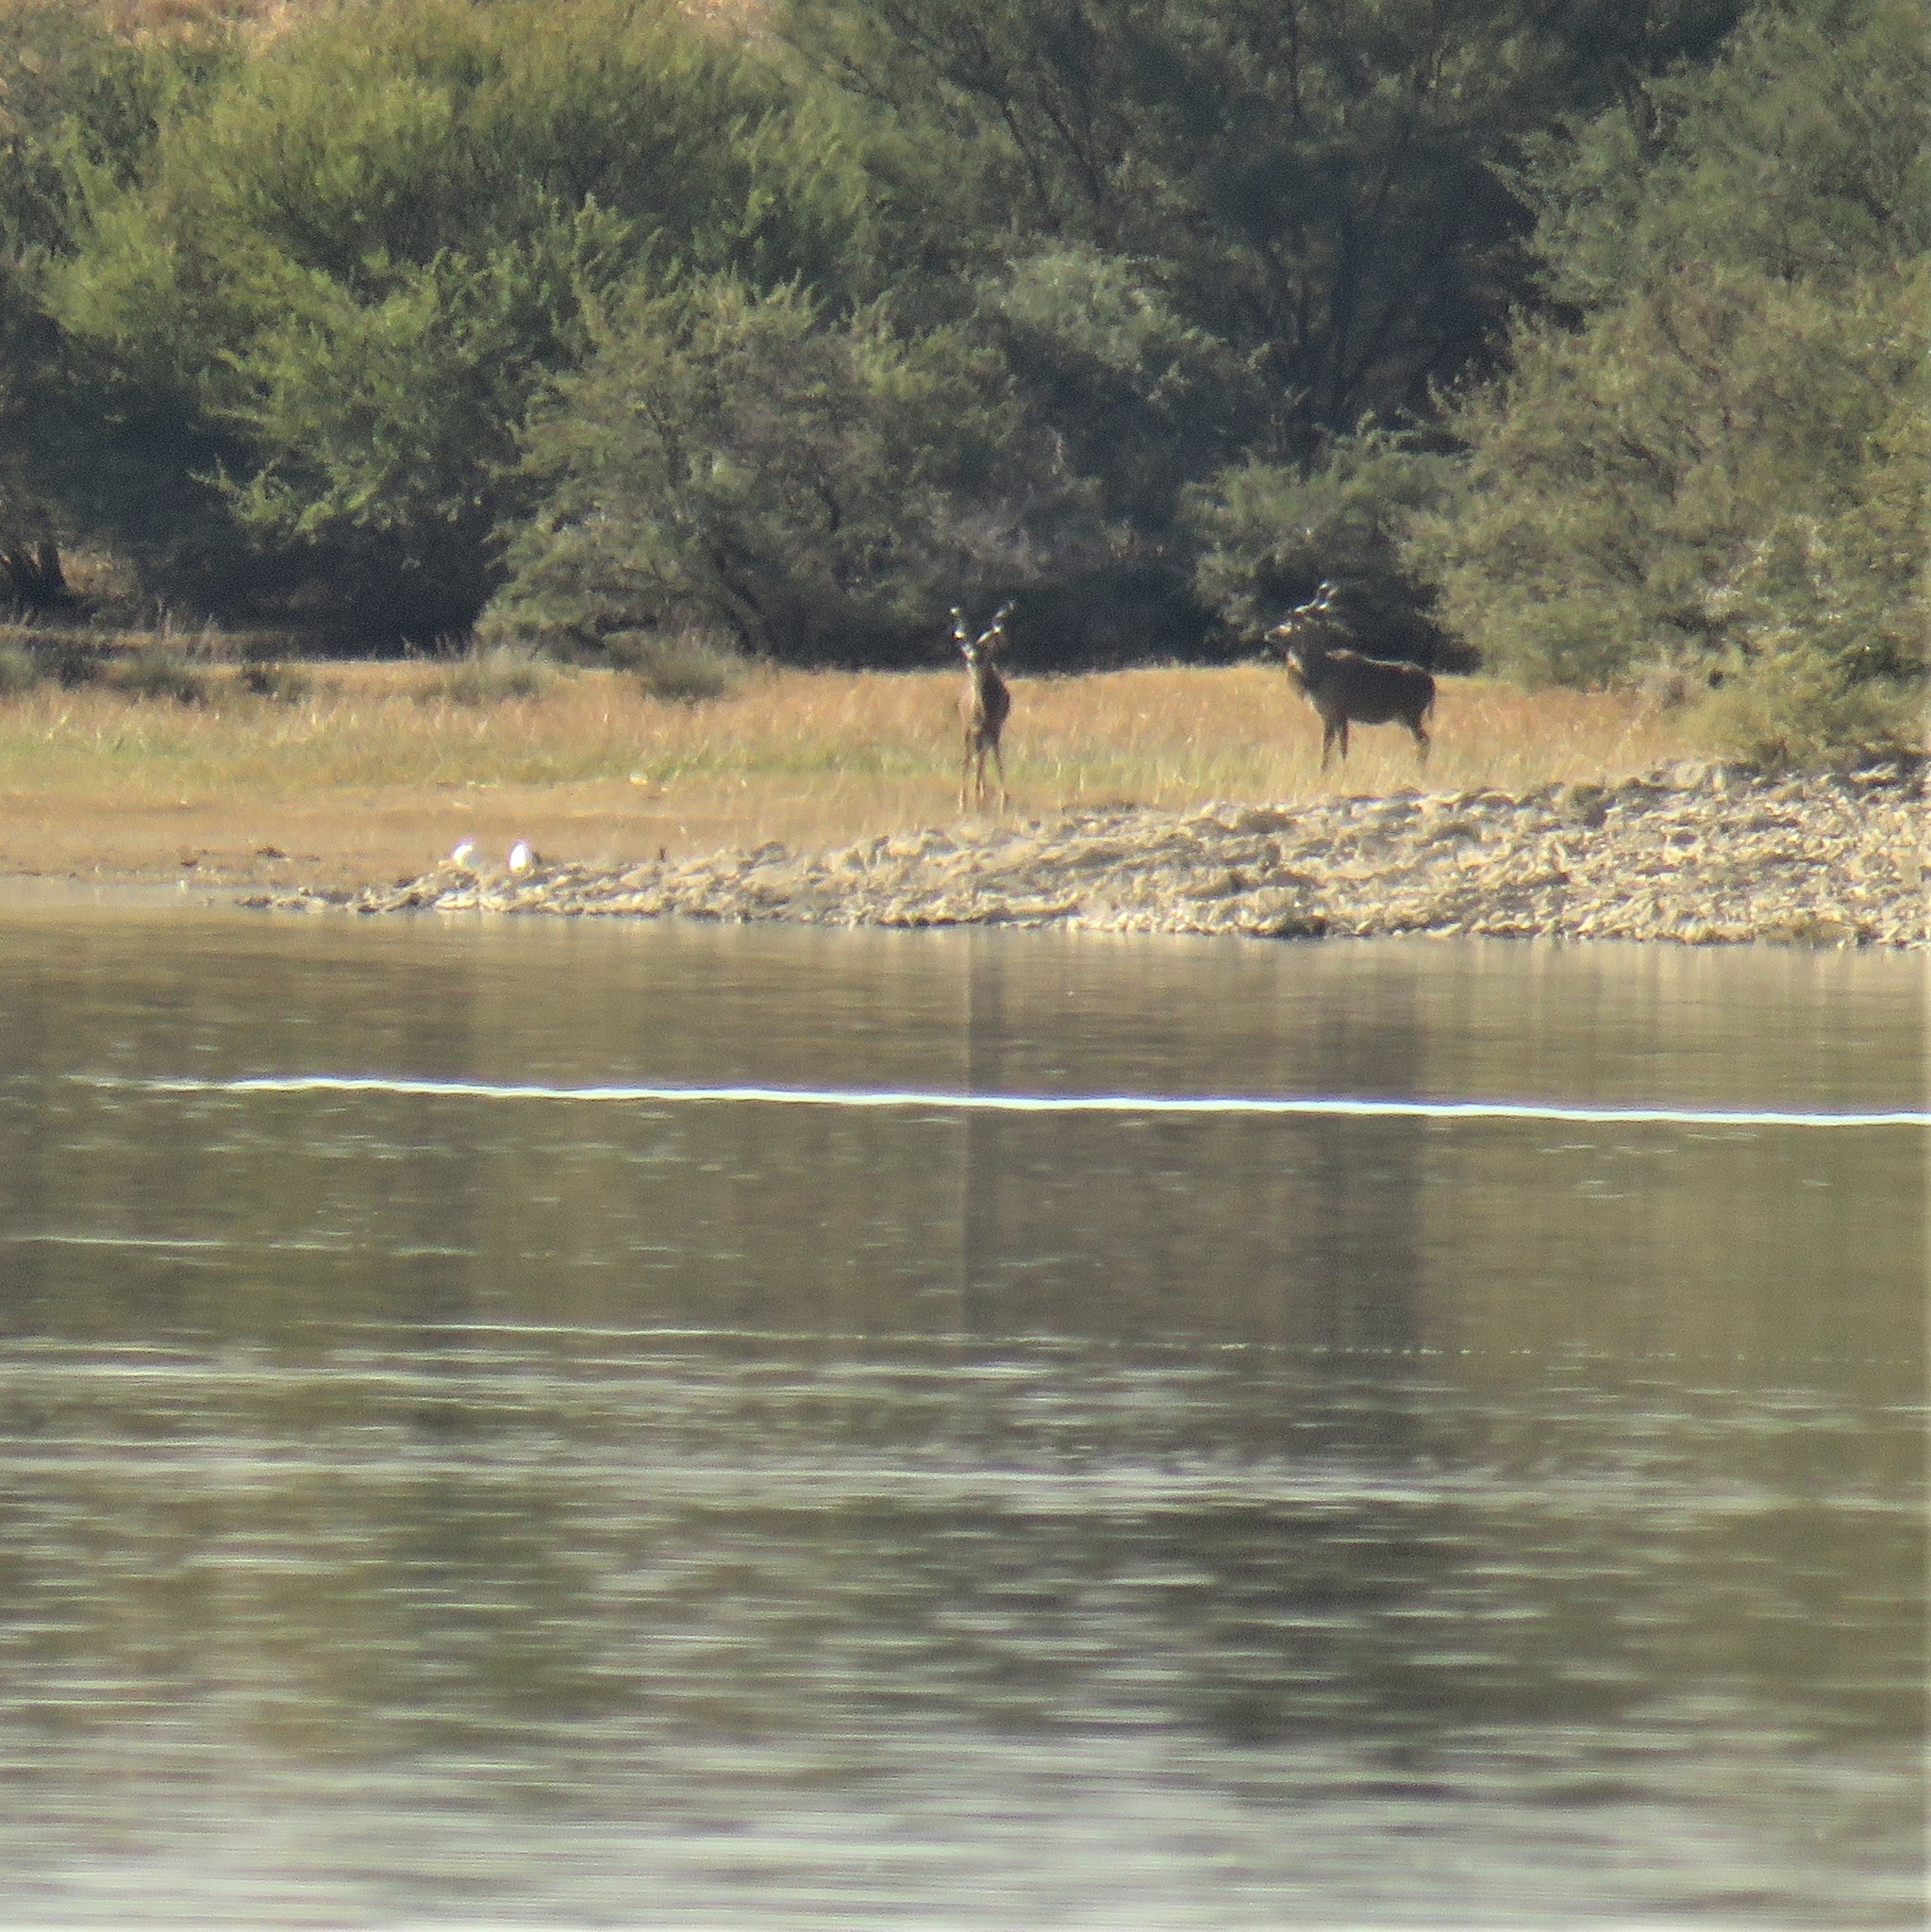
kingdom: Animalia
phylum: Chordata
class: Mammalia
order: Artiodactyla
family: Bovidae
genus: Tragelaphus
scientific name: Tragelaphus strepsiceros
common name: Greater kudu
